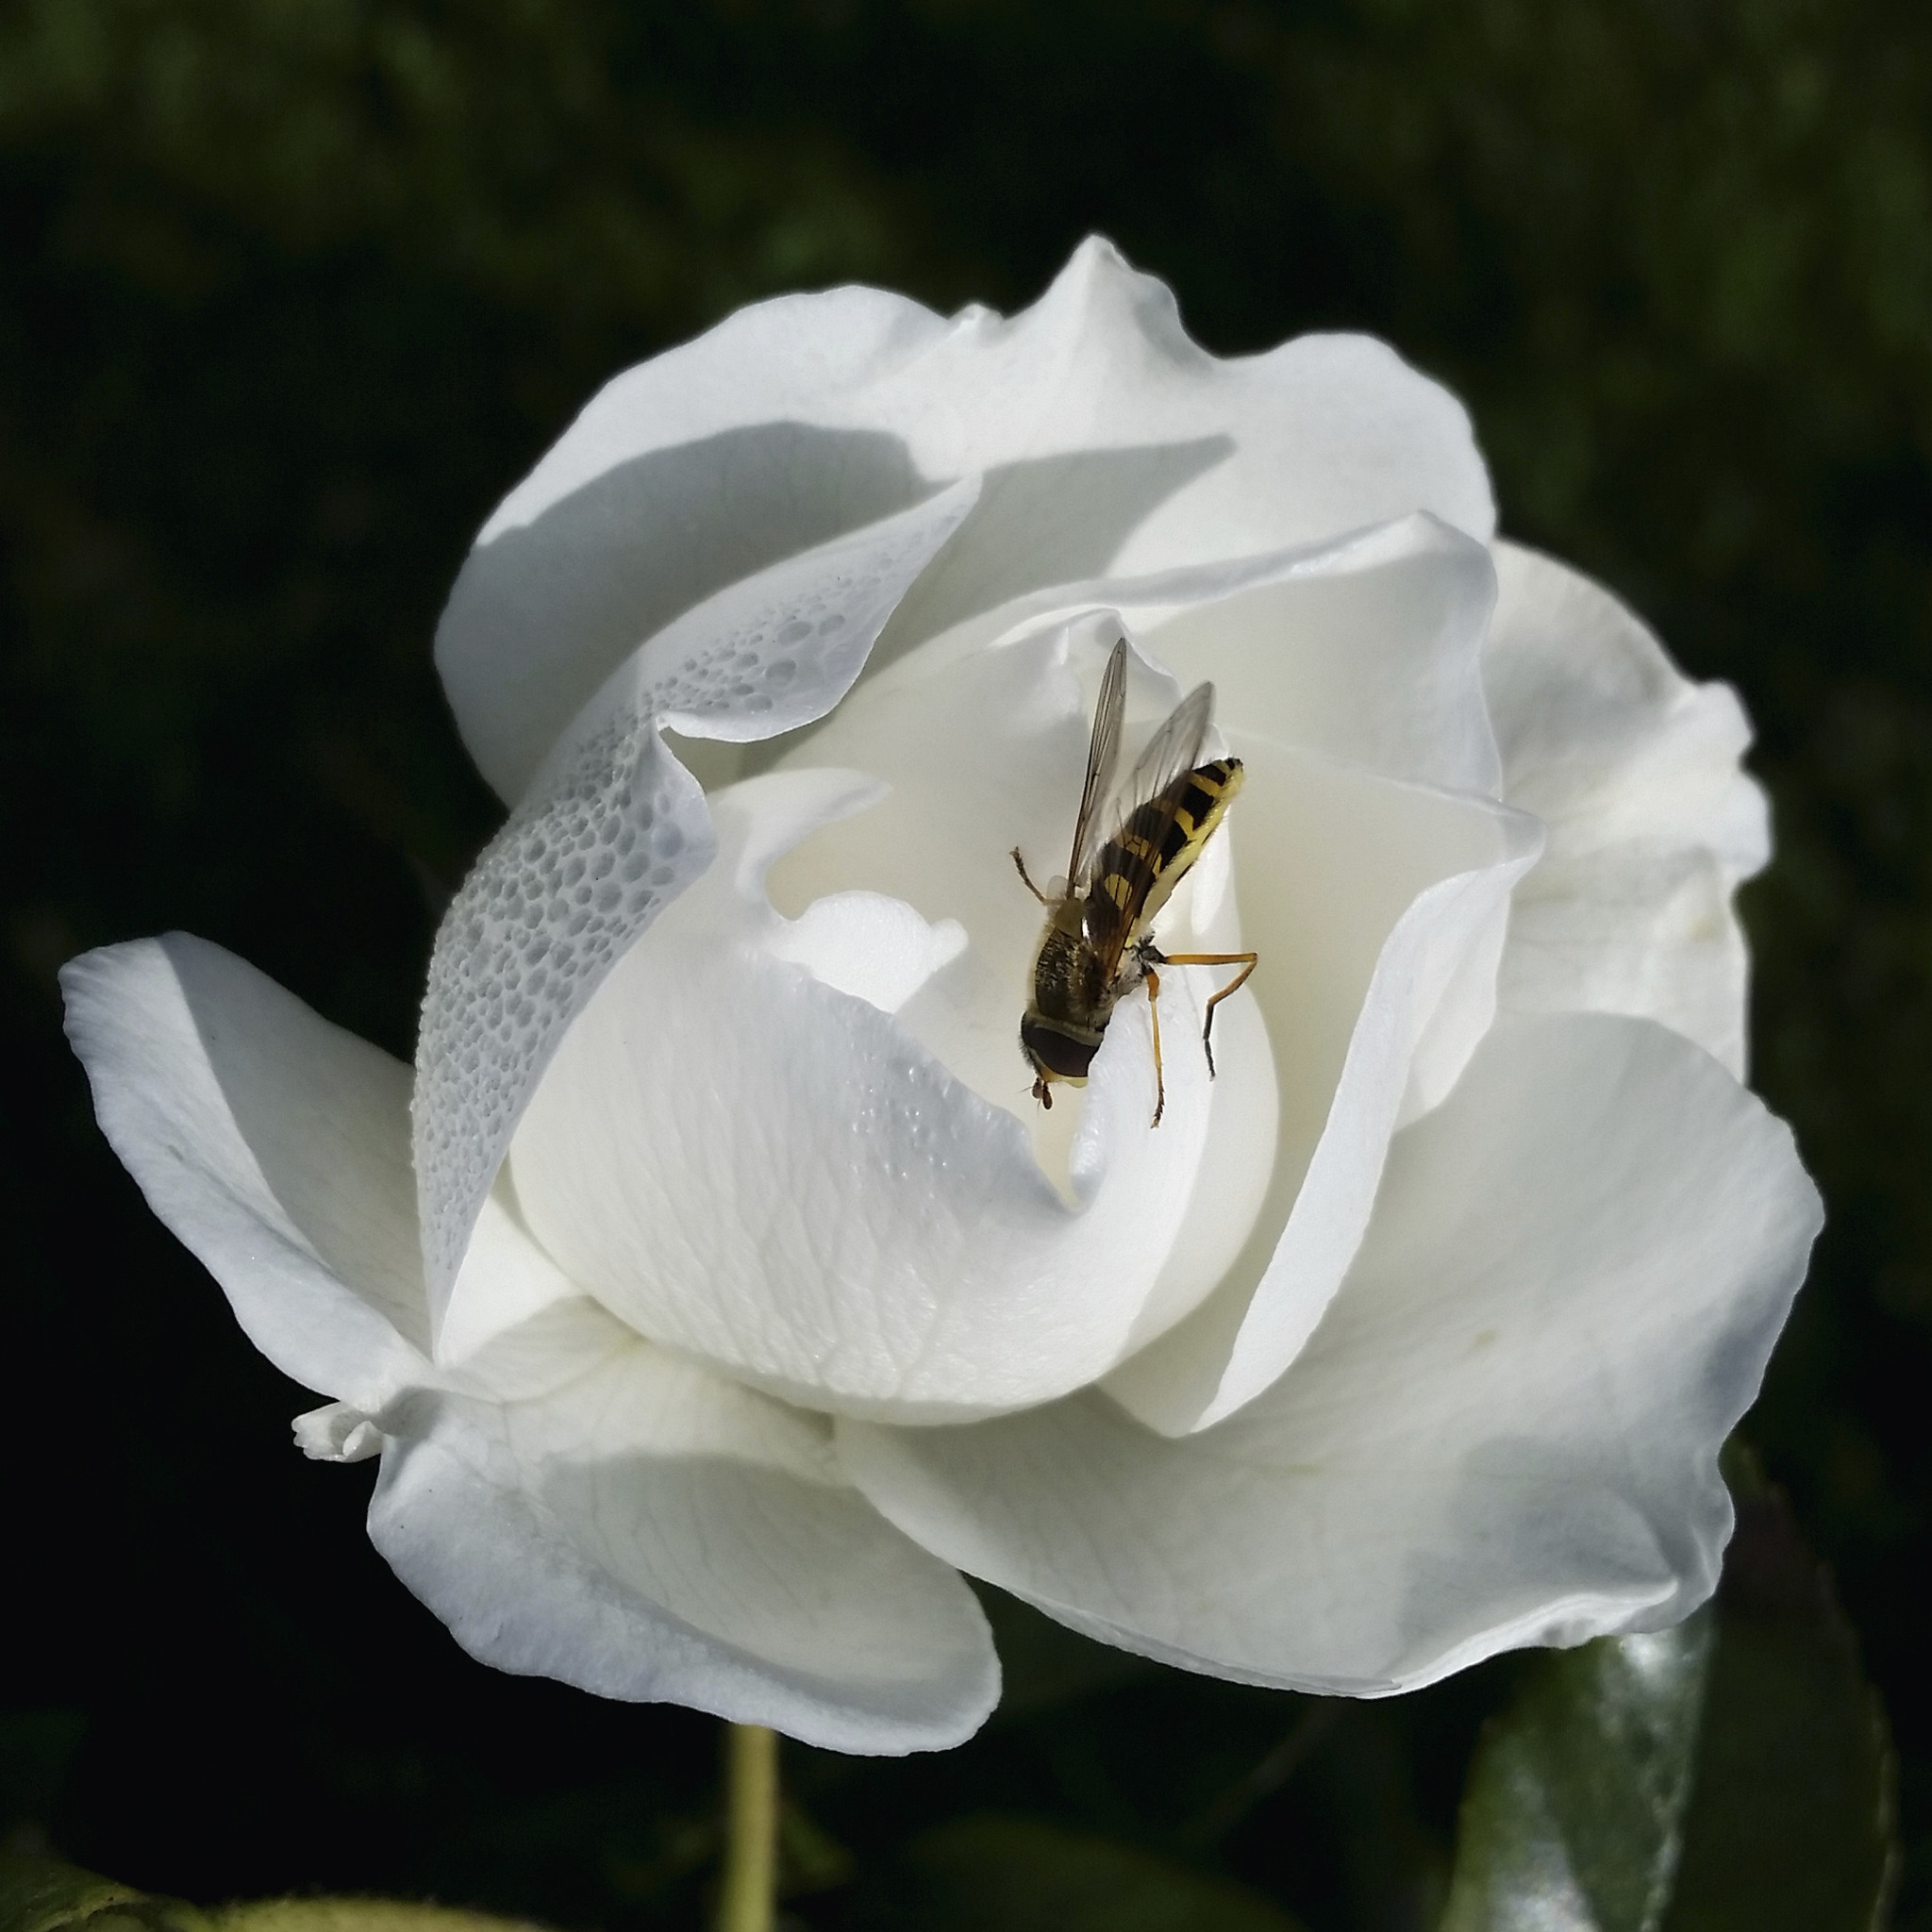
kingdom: Animalia
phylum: Arthropoda
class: Insecta
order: Diptera
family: Syrphidae
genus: Syrphus
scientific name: Syrphus ribesii
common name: Common flower fly
